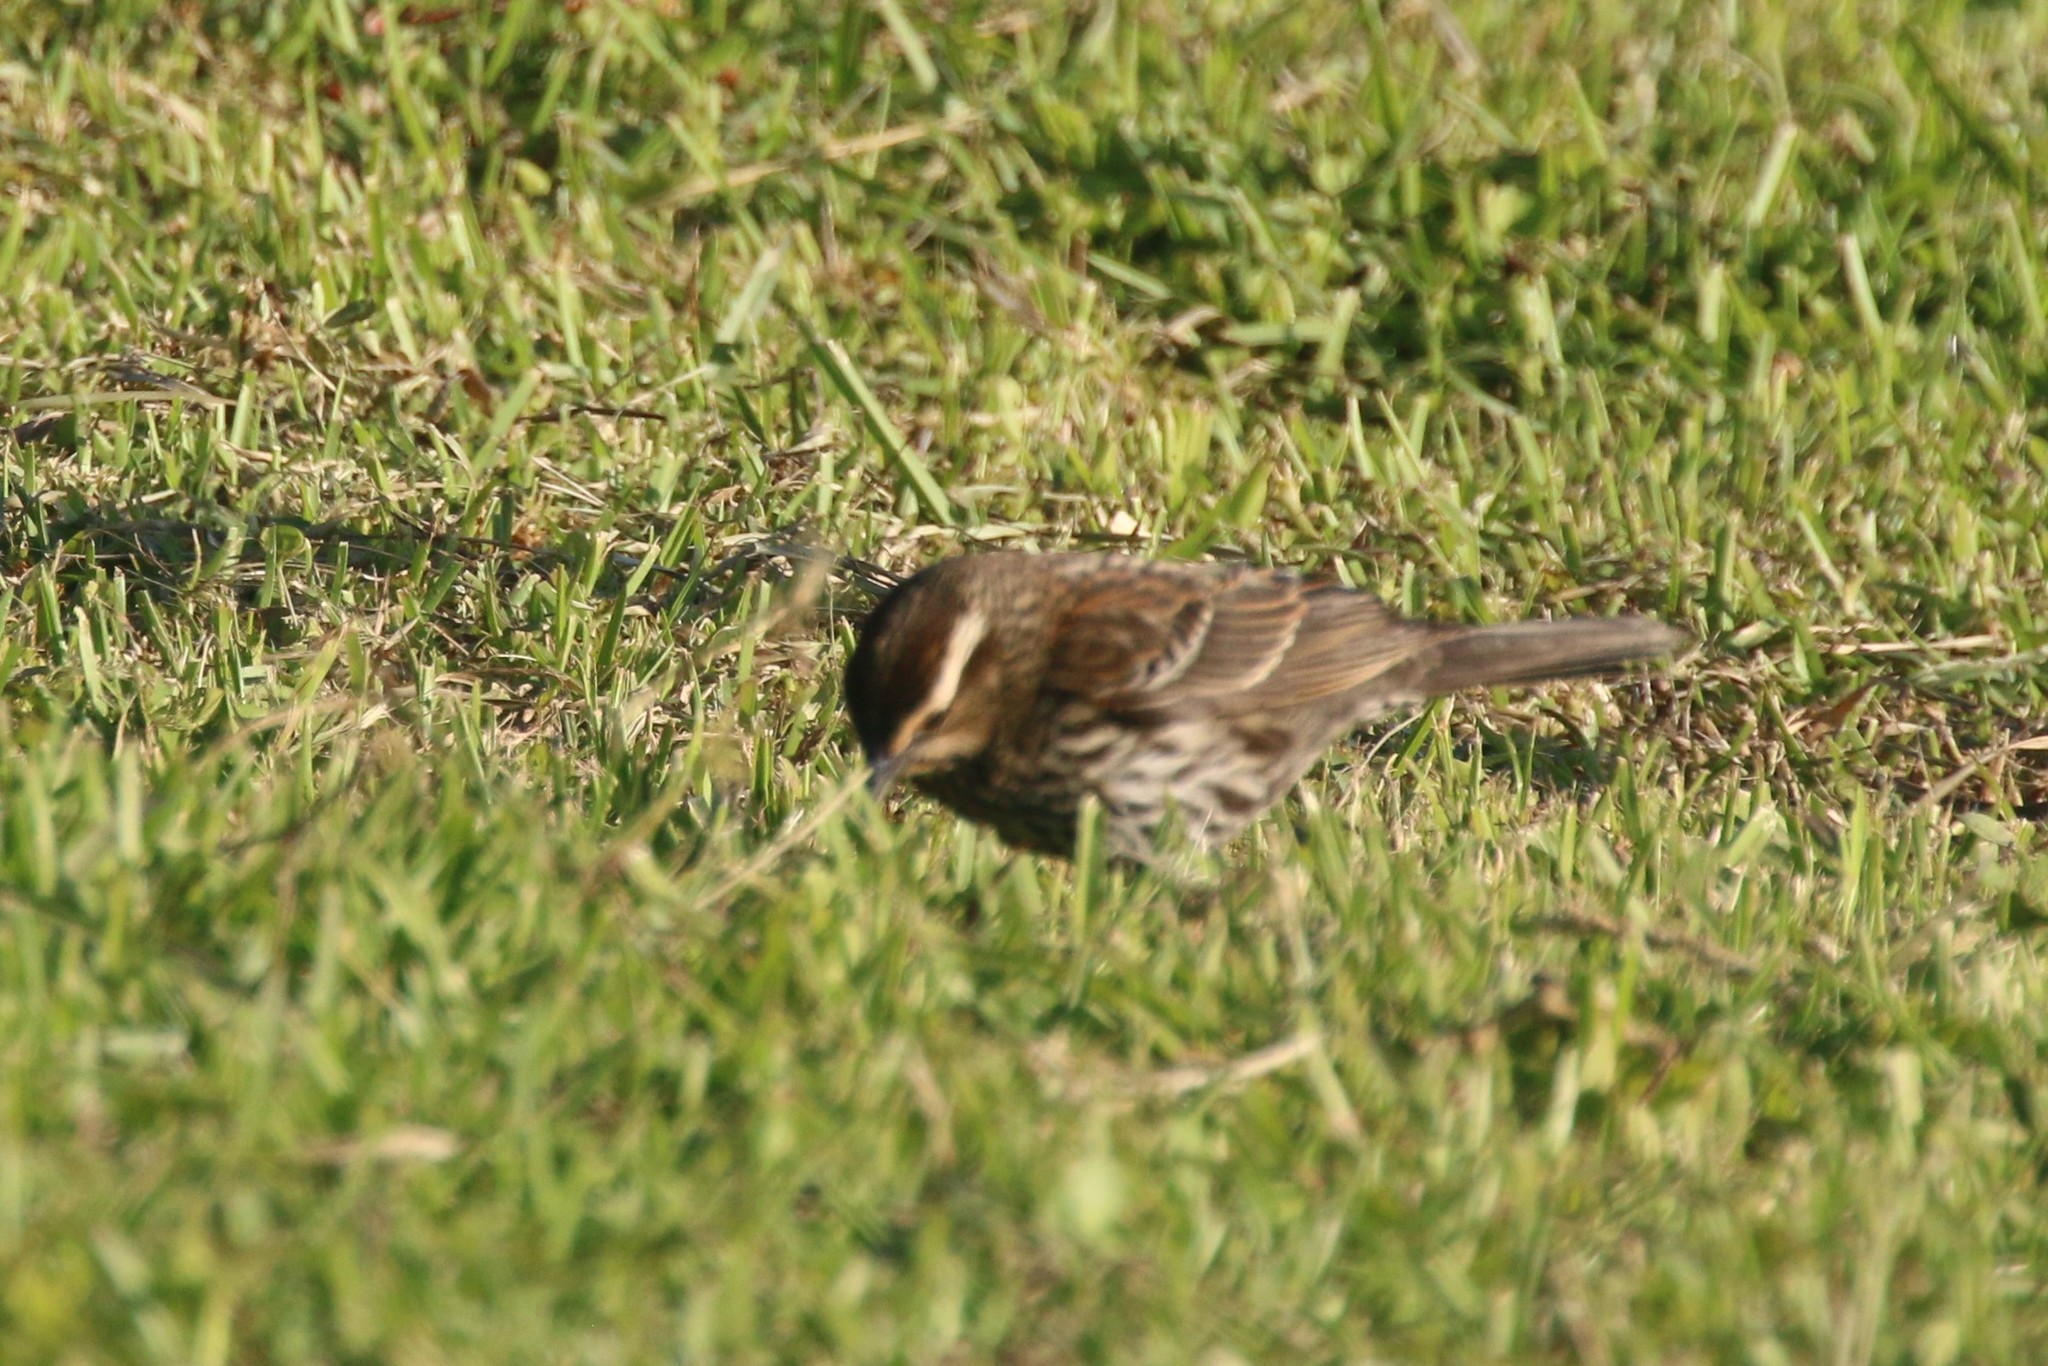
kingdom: Animalia
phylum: Chordata
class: Aves
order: Passeriformes
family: Icteridae
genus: Agelaius
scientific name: Agelaius phoeniceus
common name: Red-winged blackbird
